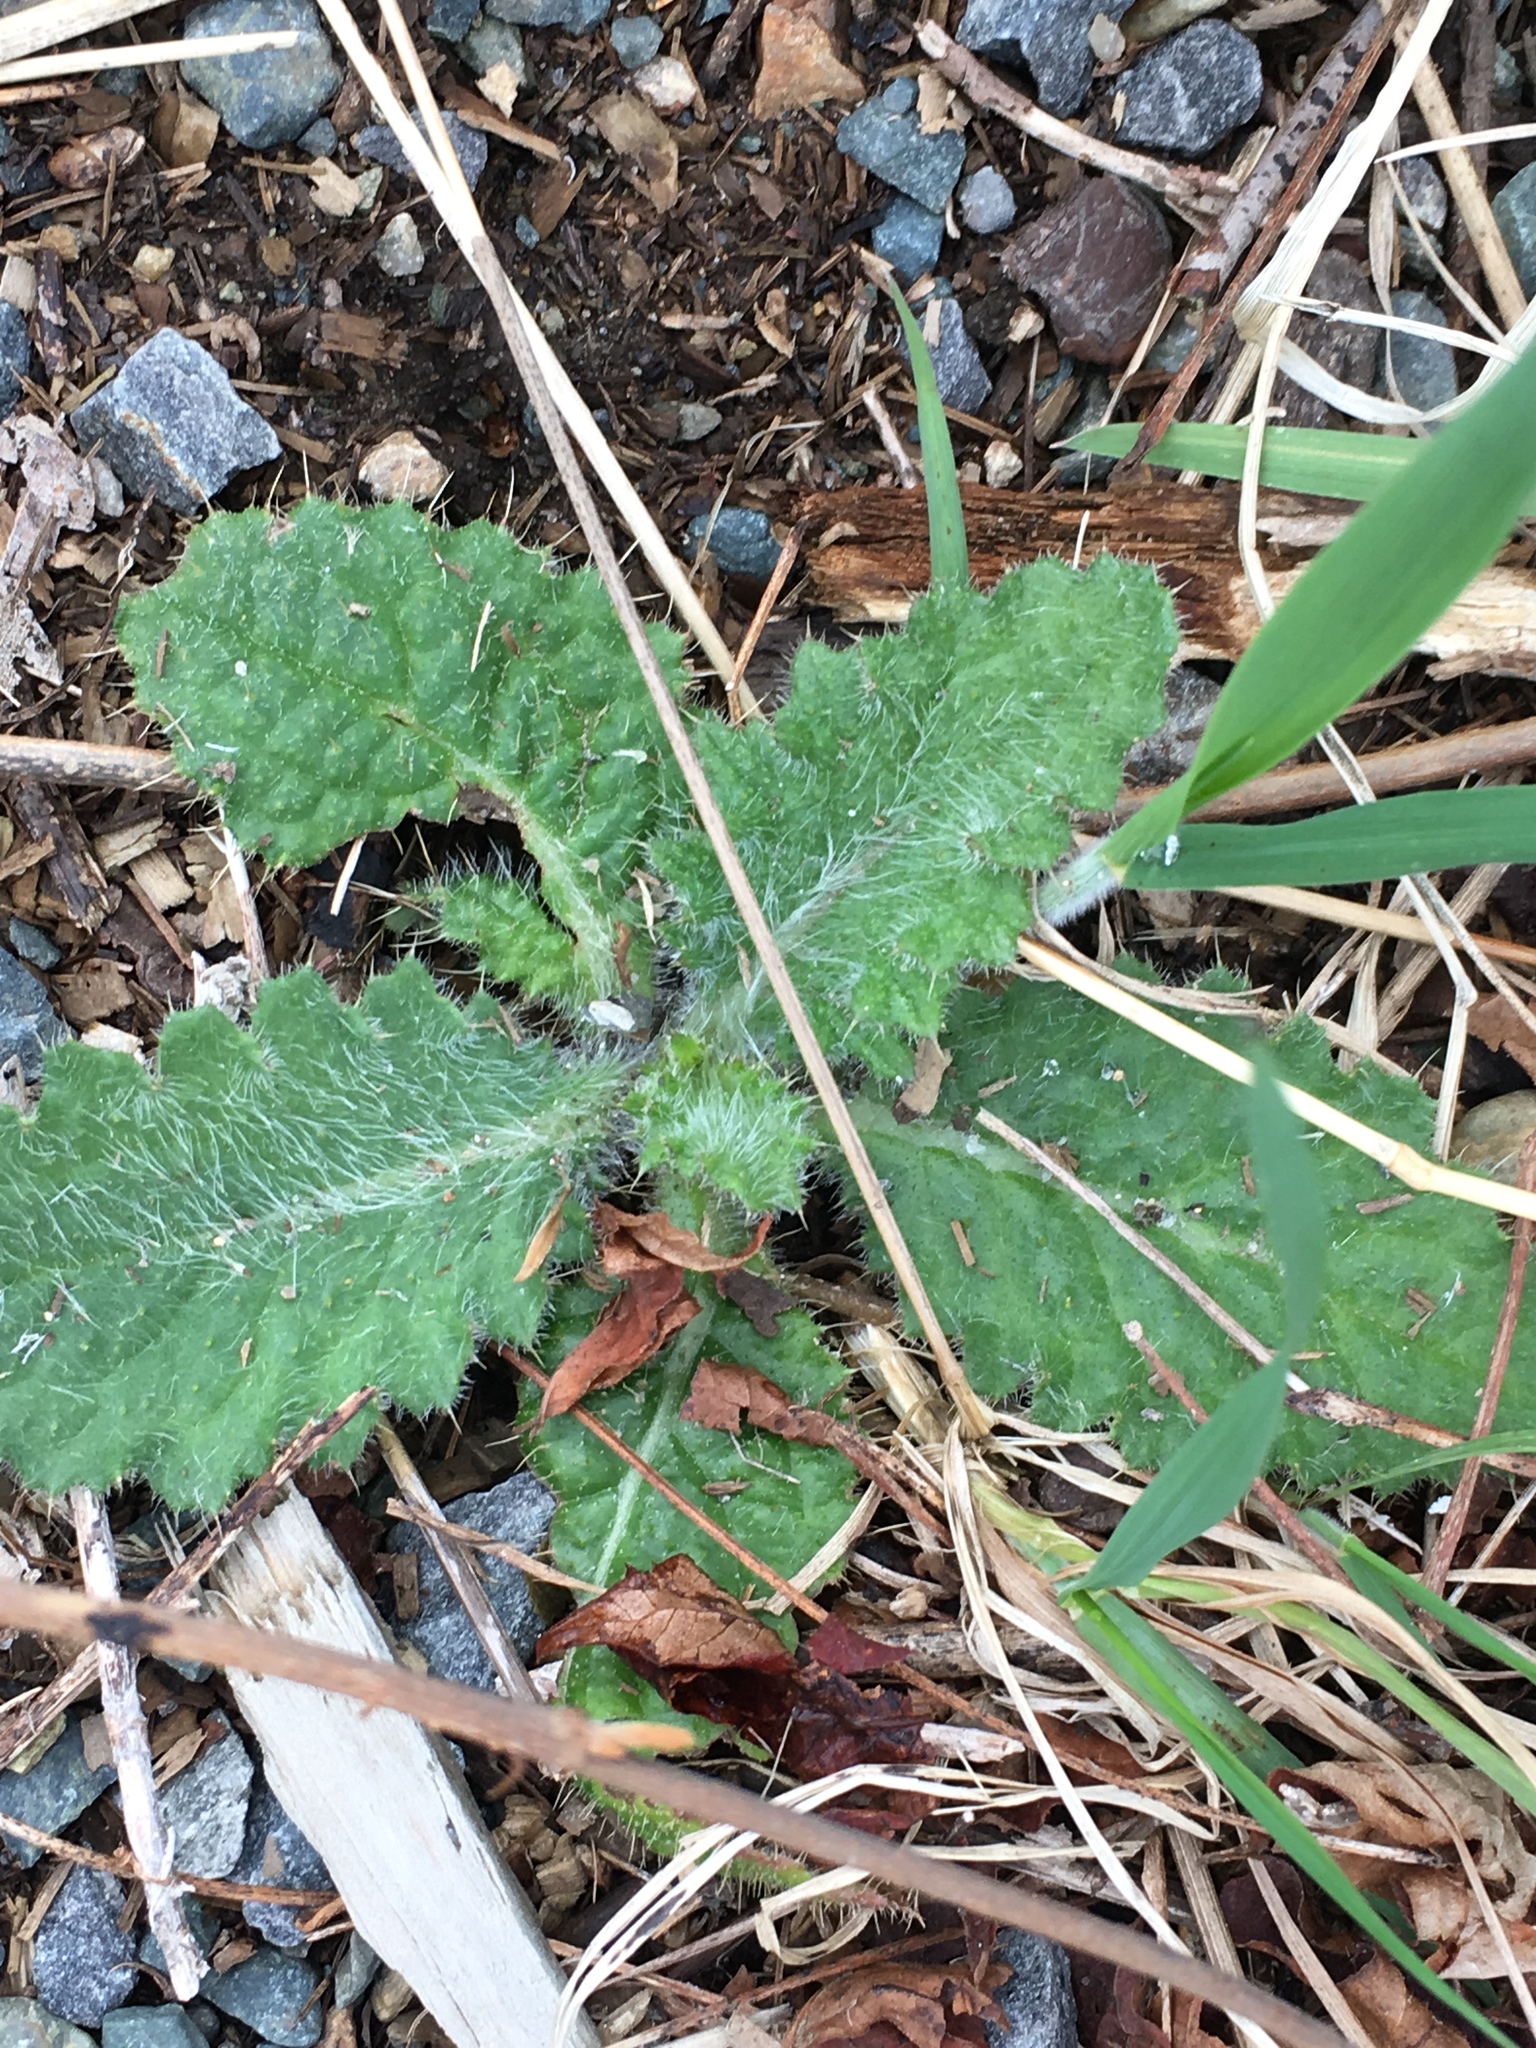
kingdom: Plantae
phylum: Tracheophyta
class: Magnoliopsida
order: Asterales
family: Asteraceae
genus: Cirsium
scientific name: Cirsium vulgare
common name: Bull thistle
